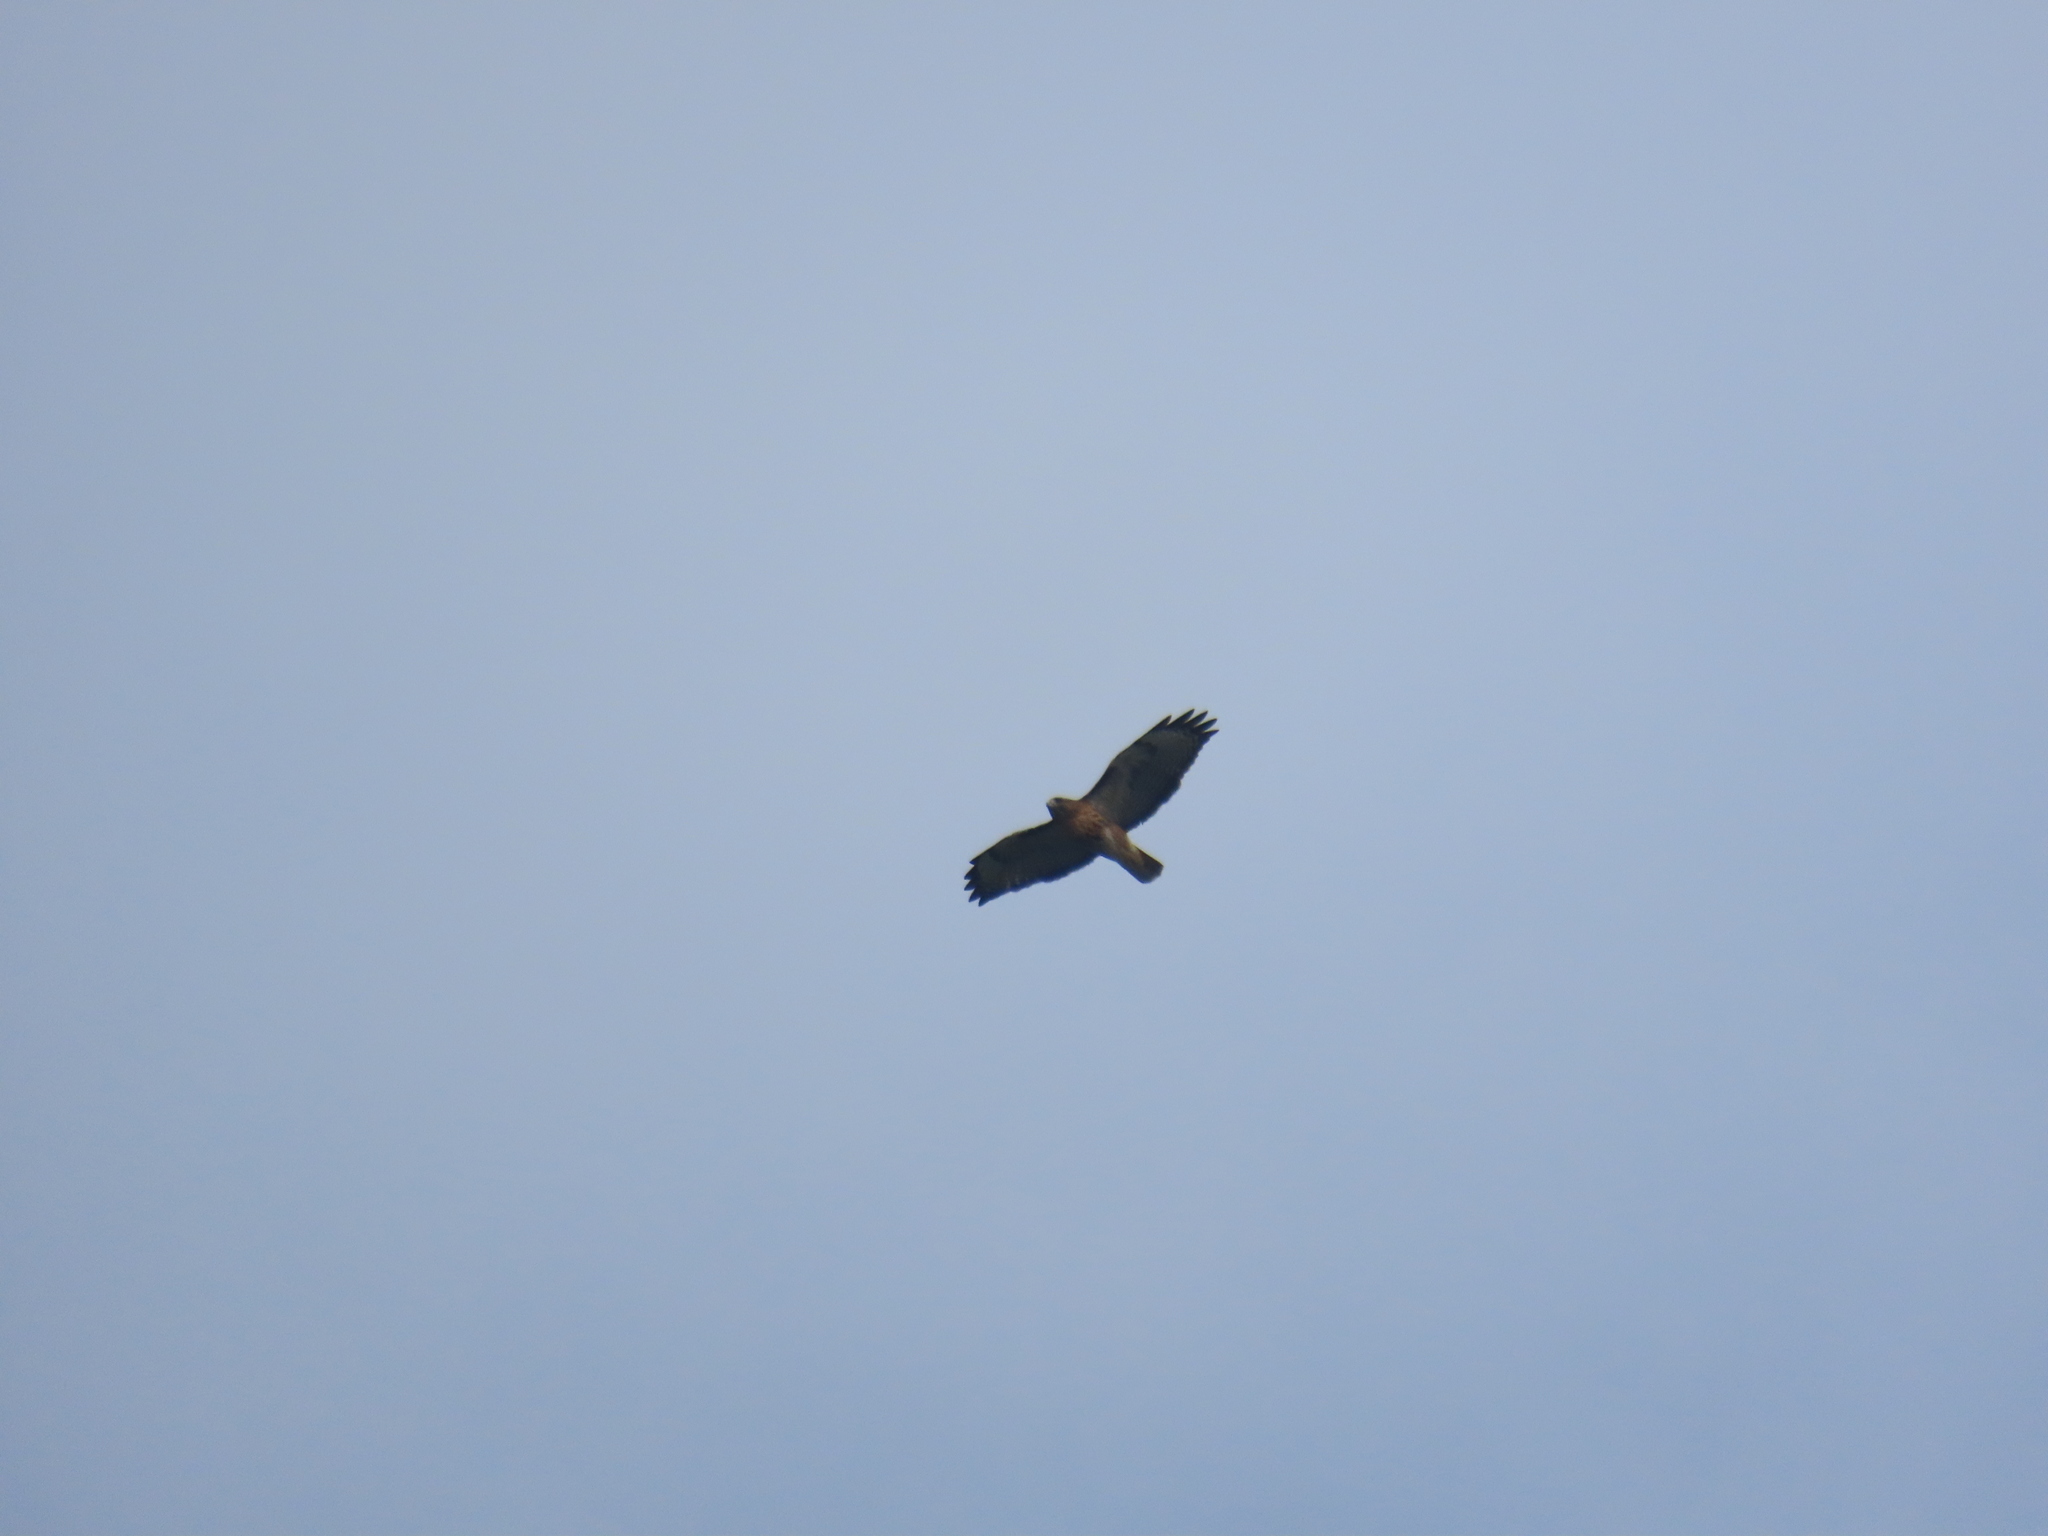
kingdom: Animalia
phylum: Chordata
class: Aves
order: Accipitriformes
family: Accipitridae
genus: Buteo
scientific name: Buteo jamaicensis
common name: Red-tailed hawk
